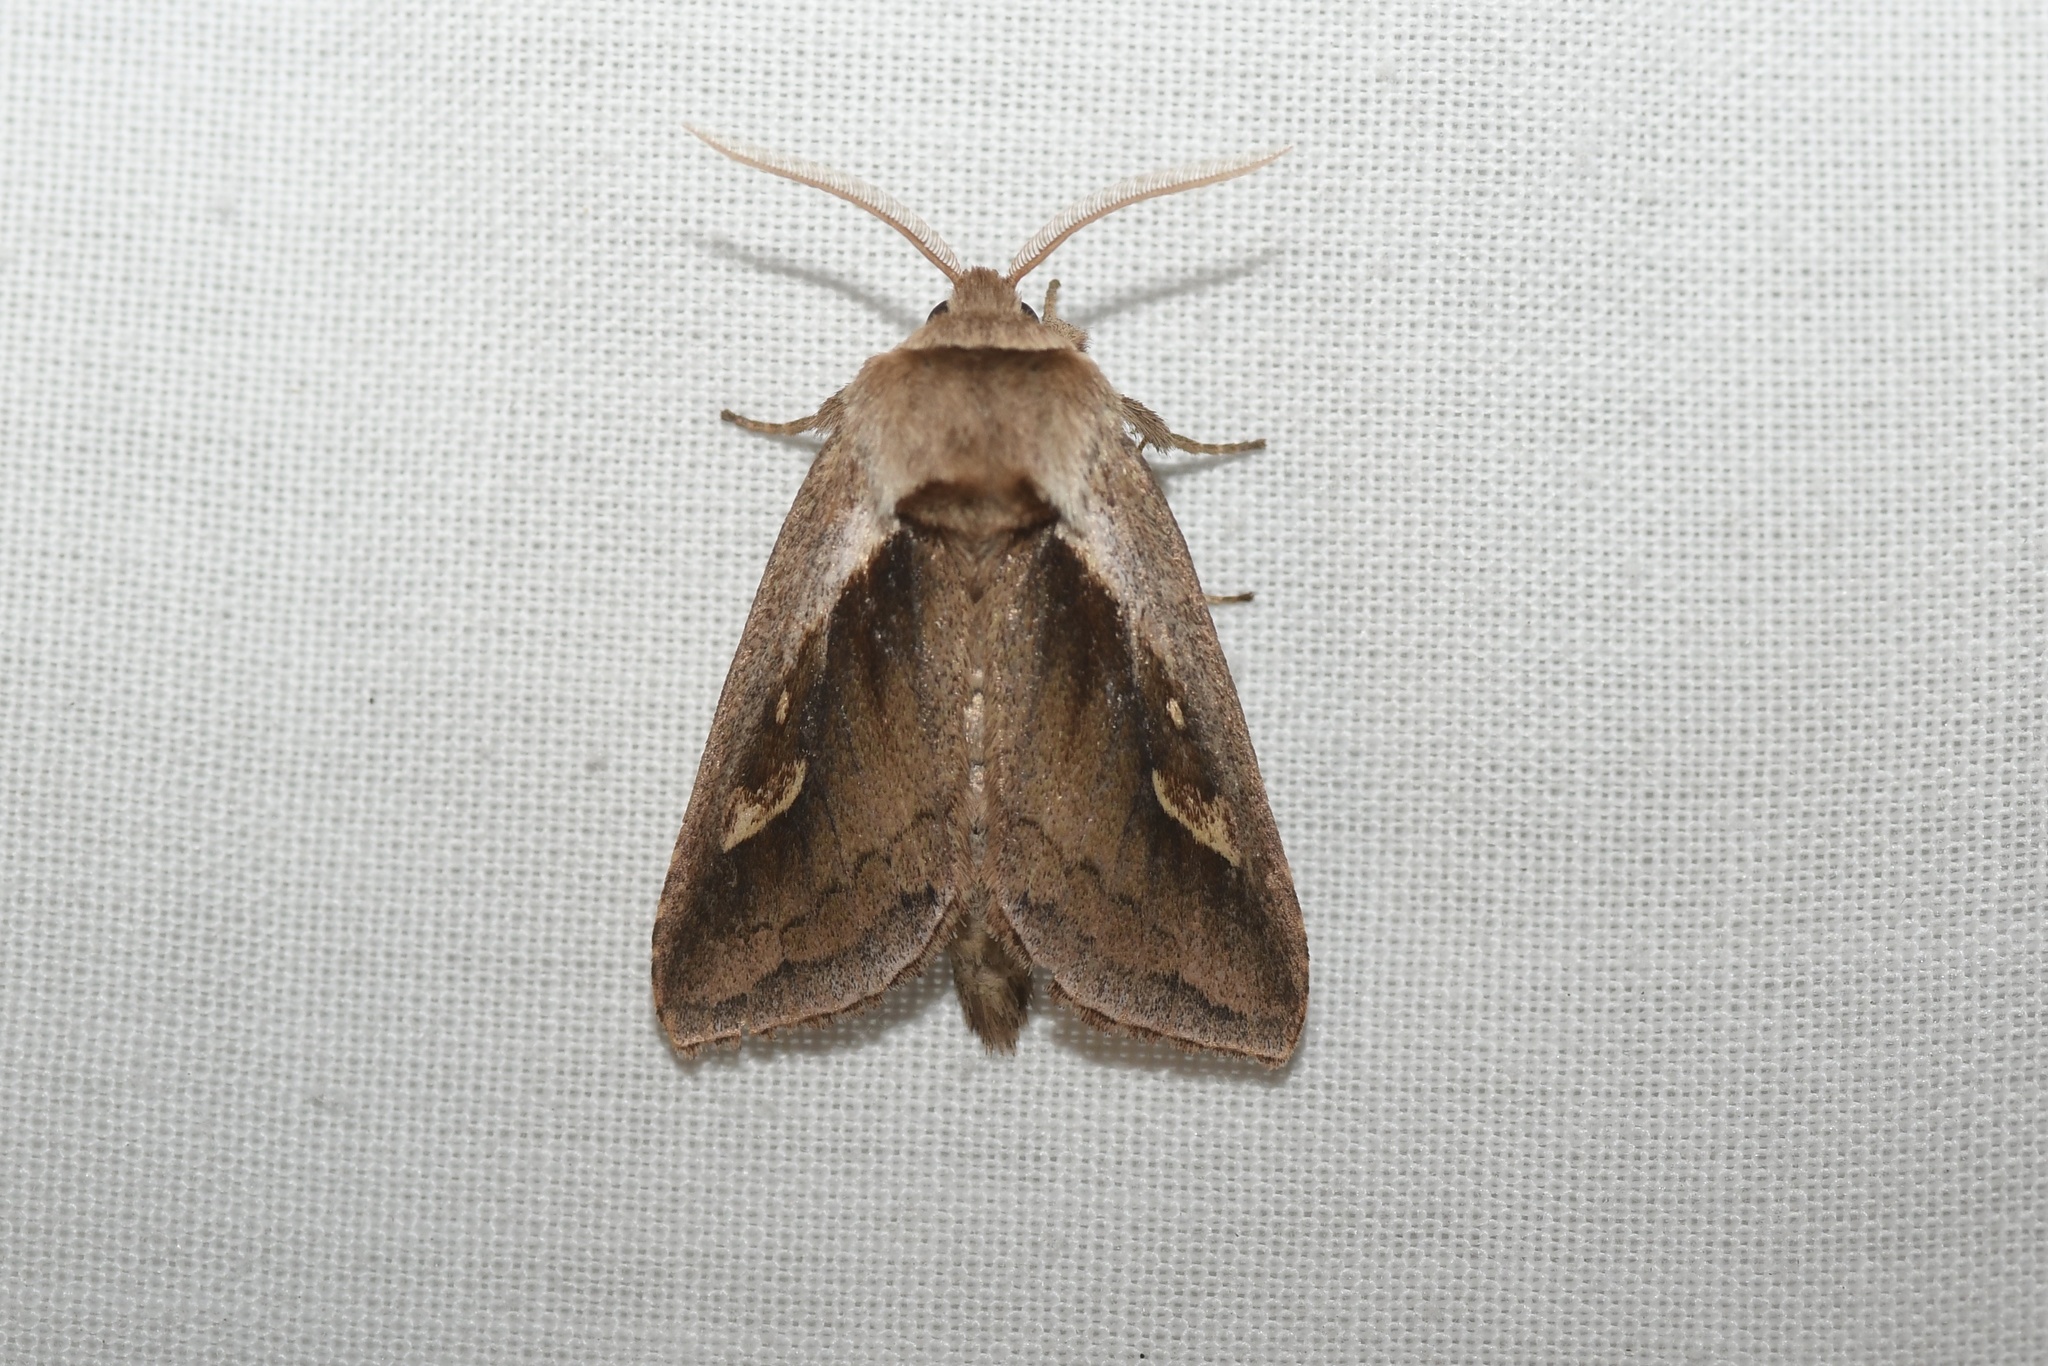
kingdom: Animalia
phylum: Arthropoda
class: Insecta
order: Lepidoptera
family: Noctuidae
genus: Bellura
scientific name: Bellura obliqua
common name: Cattail borer moth
